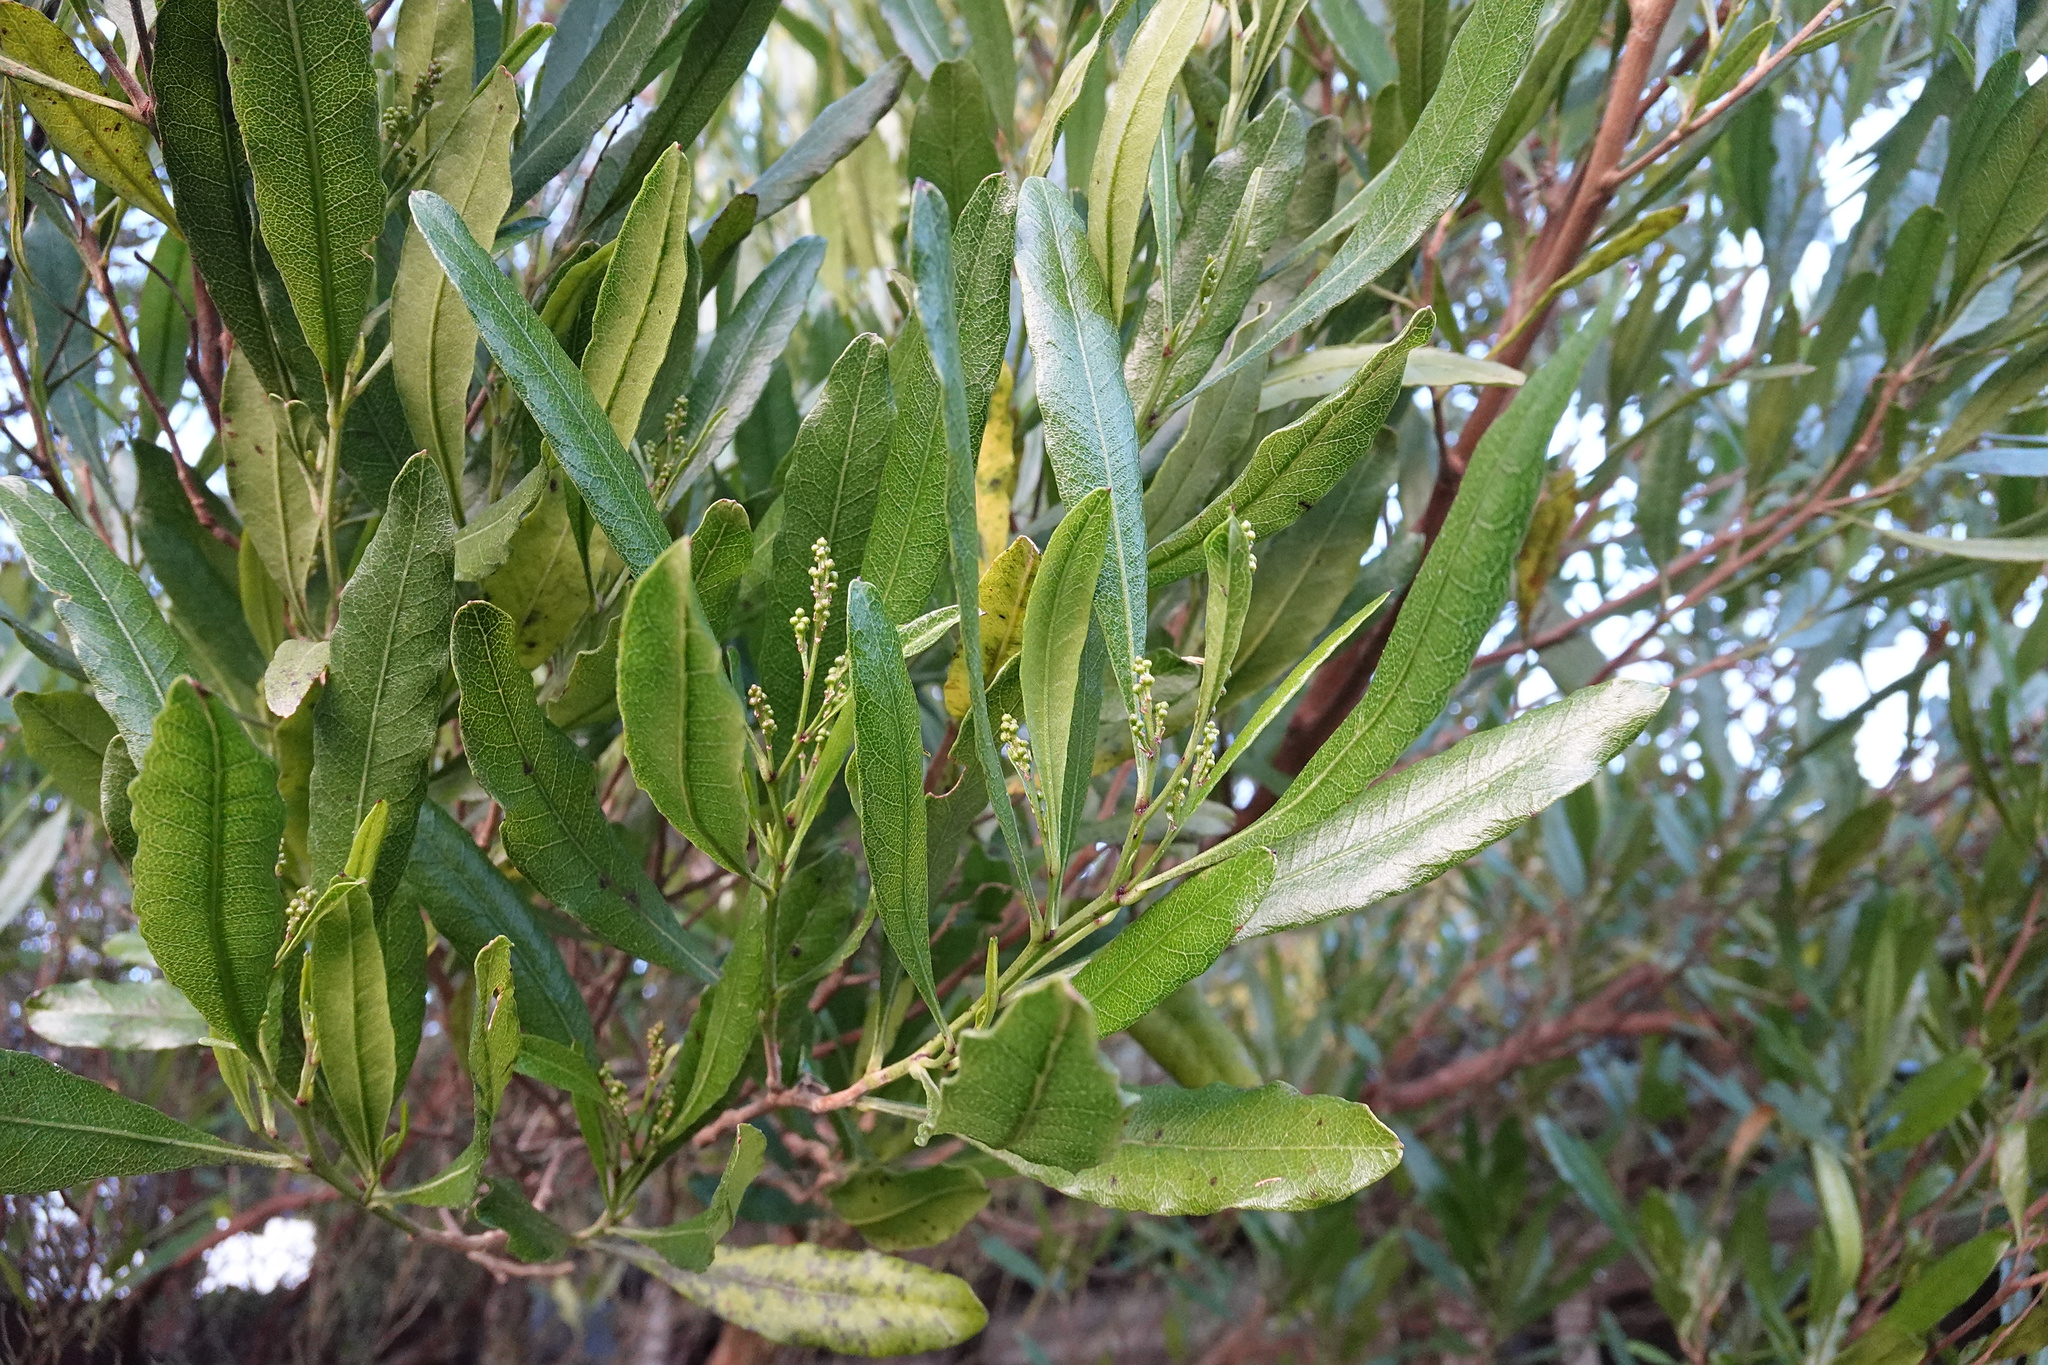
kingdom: Plantae
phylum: Tracheophyta
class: Magnoliopsida
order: Sapindales
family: Sapindaceae
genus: Dodonaea
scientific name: Dodonaea viscosa
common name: Hopbush
